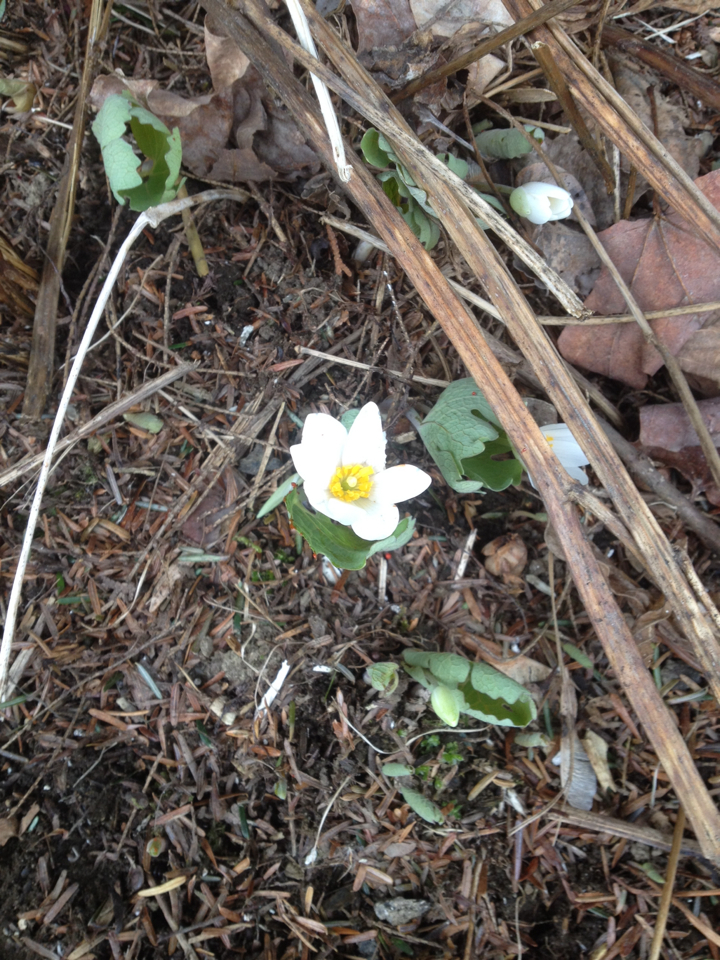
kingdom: Plantae
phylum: Tracheophyta
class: Magnoliopsida
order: Ranunculales
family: Papaveraceae
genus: Sanguinaria
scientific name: Sanguinaria canadensis
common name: Bloodroot
